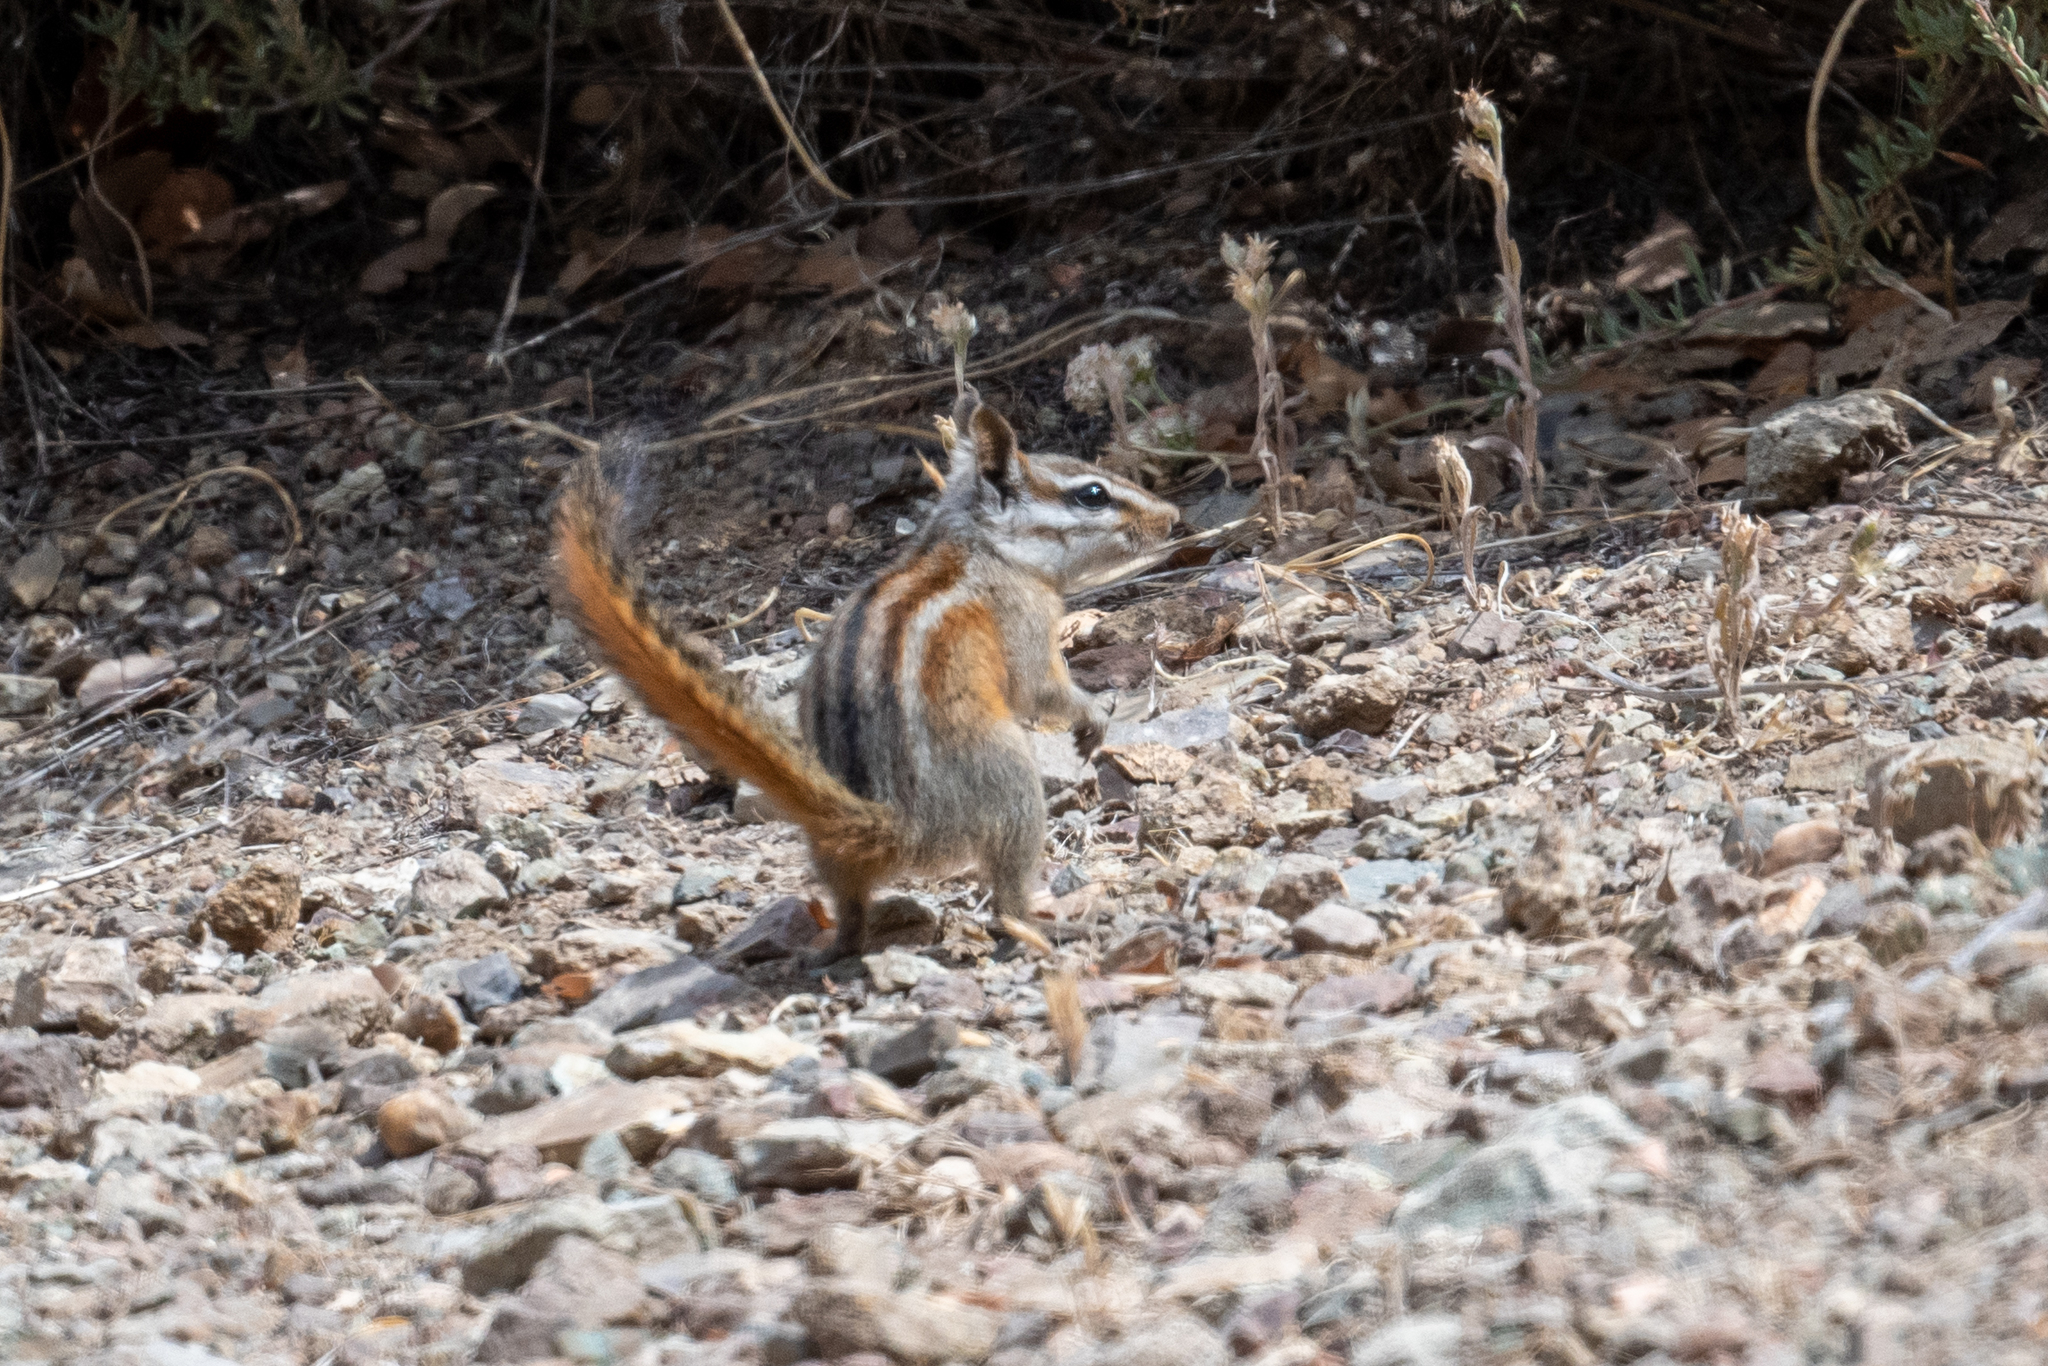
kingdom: Animalia
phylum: Chordata
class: Mammalia
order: Rodentia
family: Sciuridae
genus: Tamias
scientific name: Tamias merriami
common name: Merriam's chipmunk
